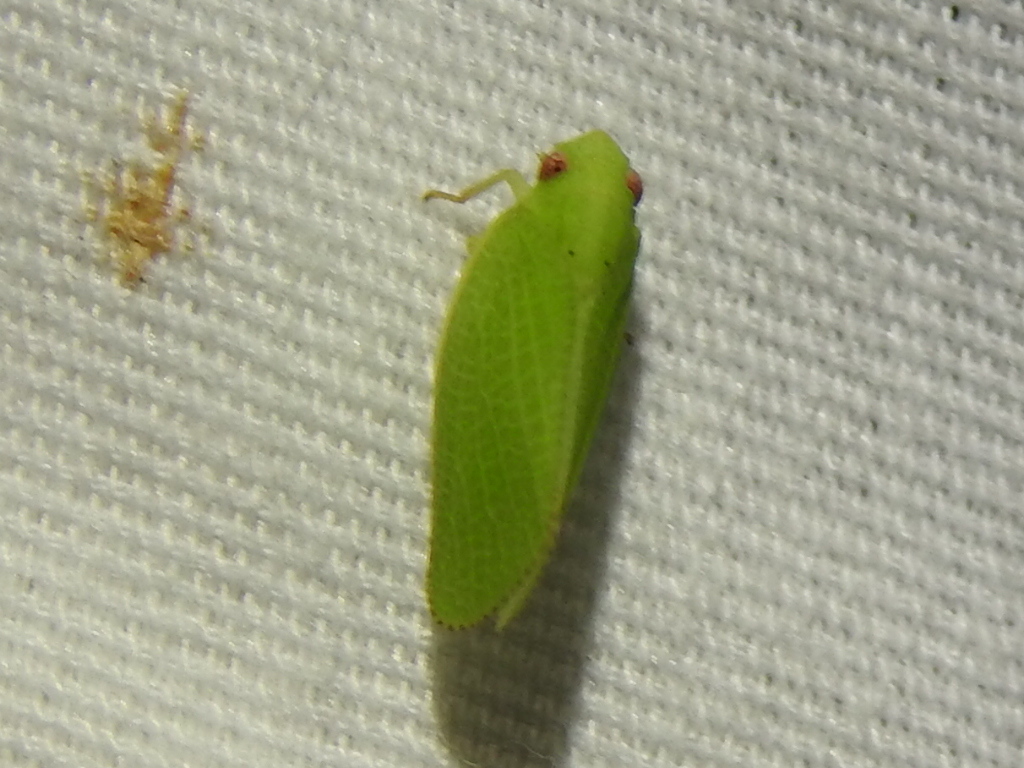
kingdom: Animalia
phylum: Arthropoda
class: Insecta
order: Hemiptera
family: Acanaloniidae
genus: Acanalonia
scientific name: Acanalonia conica
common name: Green cone-headed planthopper
